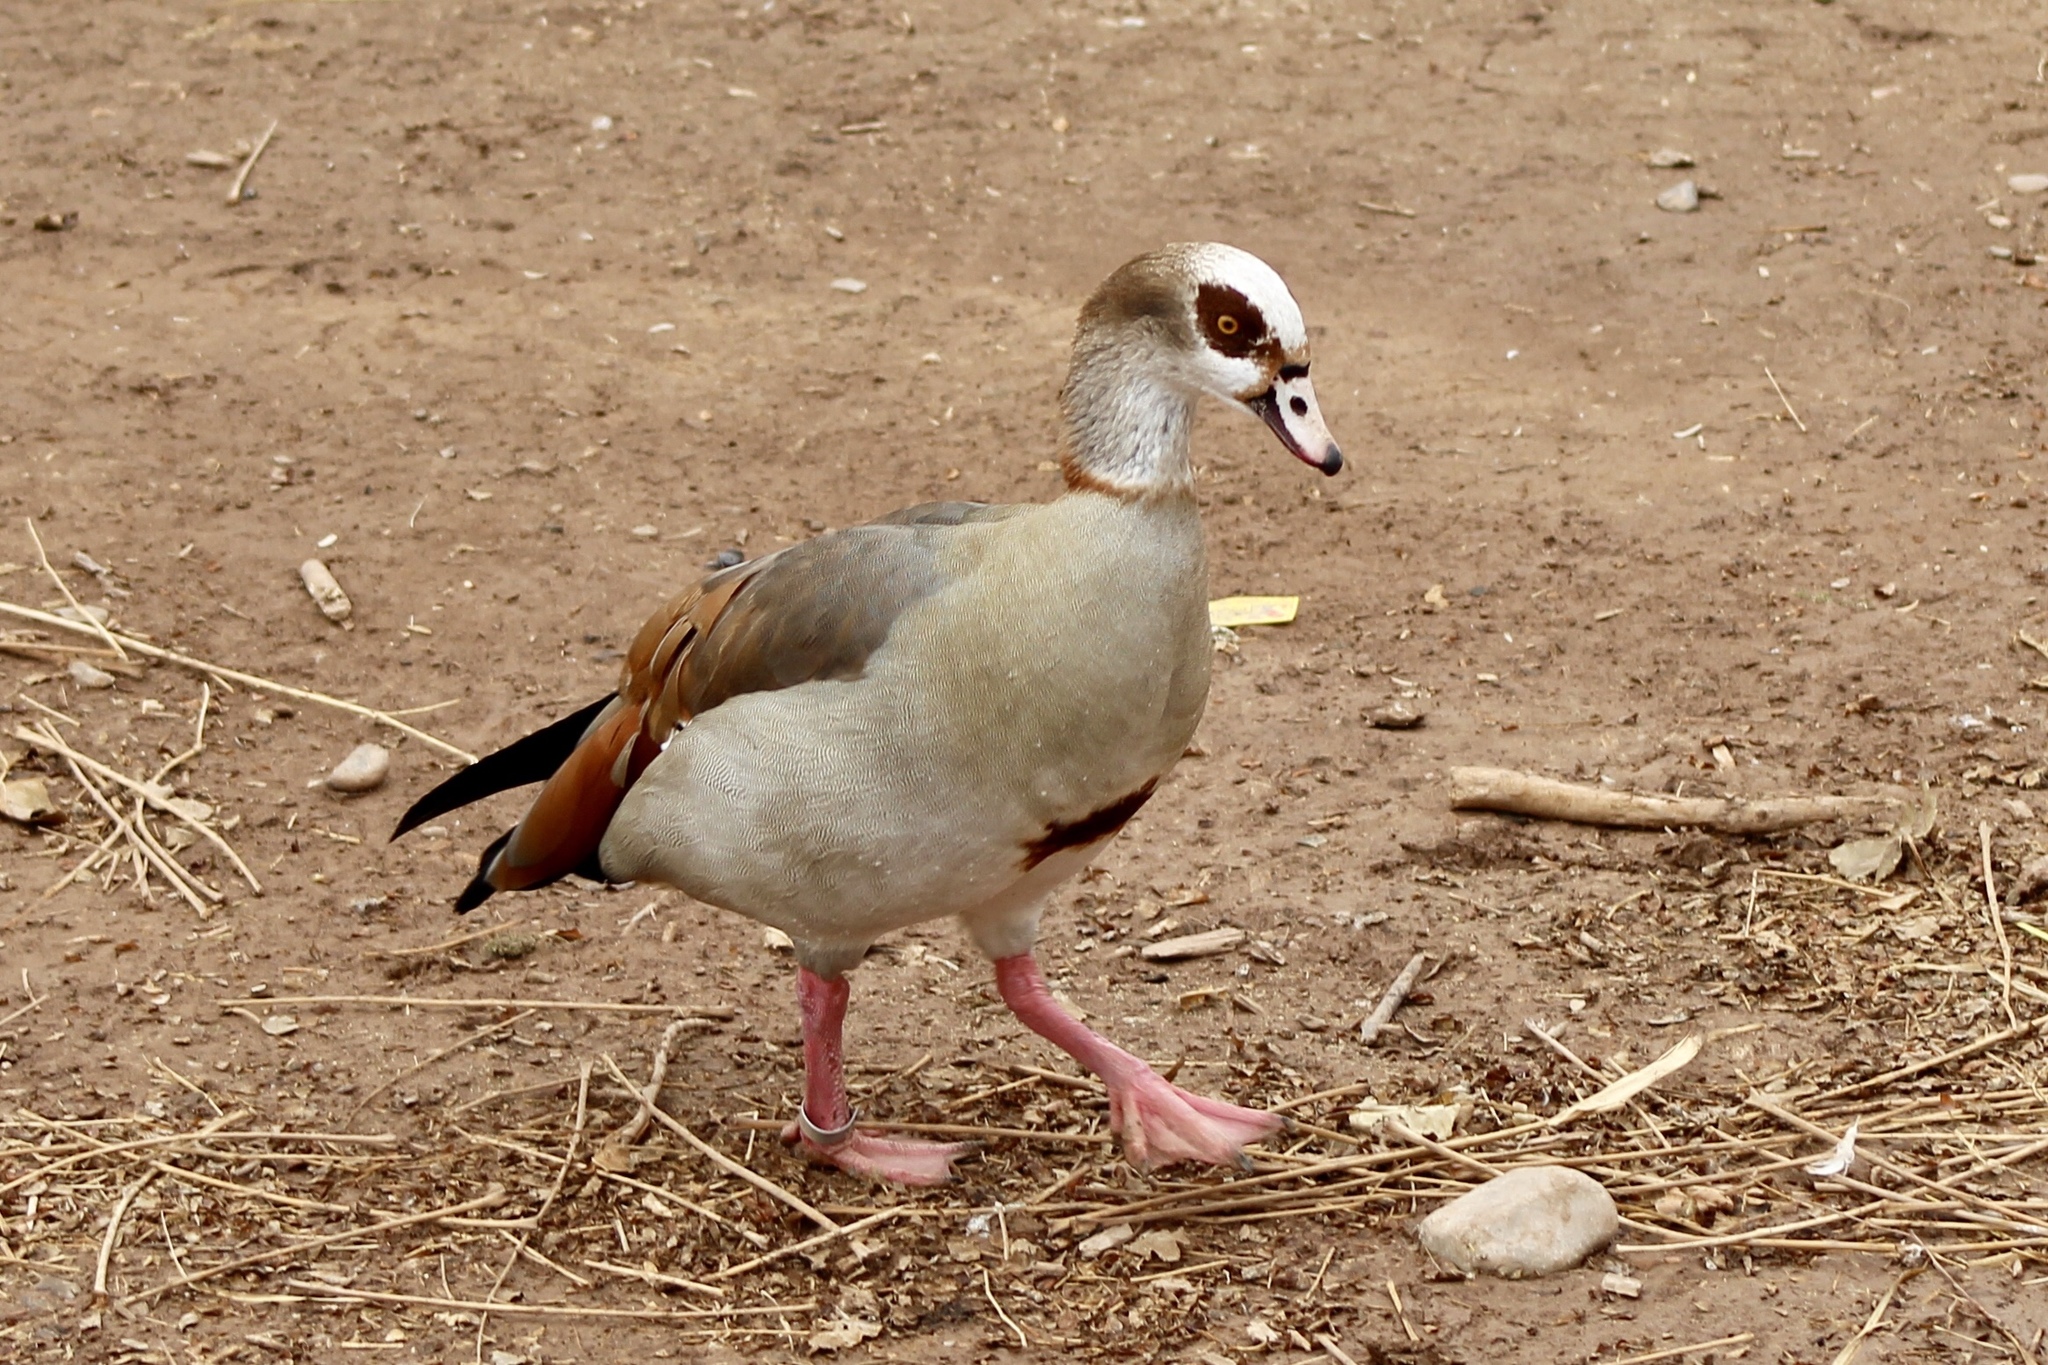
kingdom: Animalia
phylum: Chordata
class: Aves
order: Anseriformes
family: Anatidae
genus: Alopochen
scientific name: Alopochen aegyptiaca
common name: Egyptian goose
